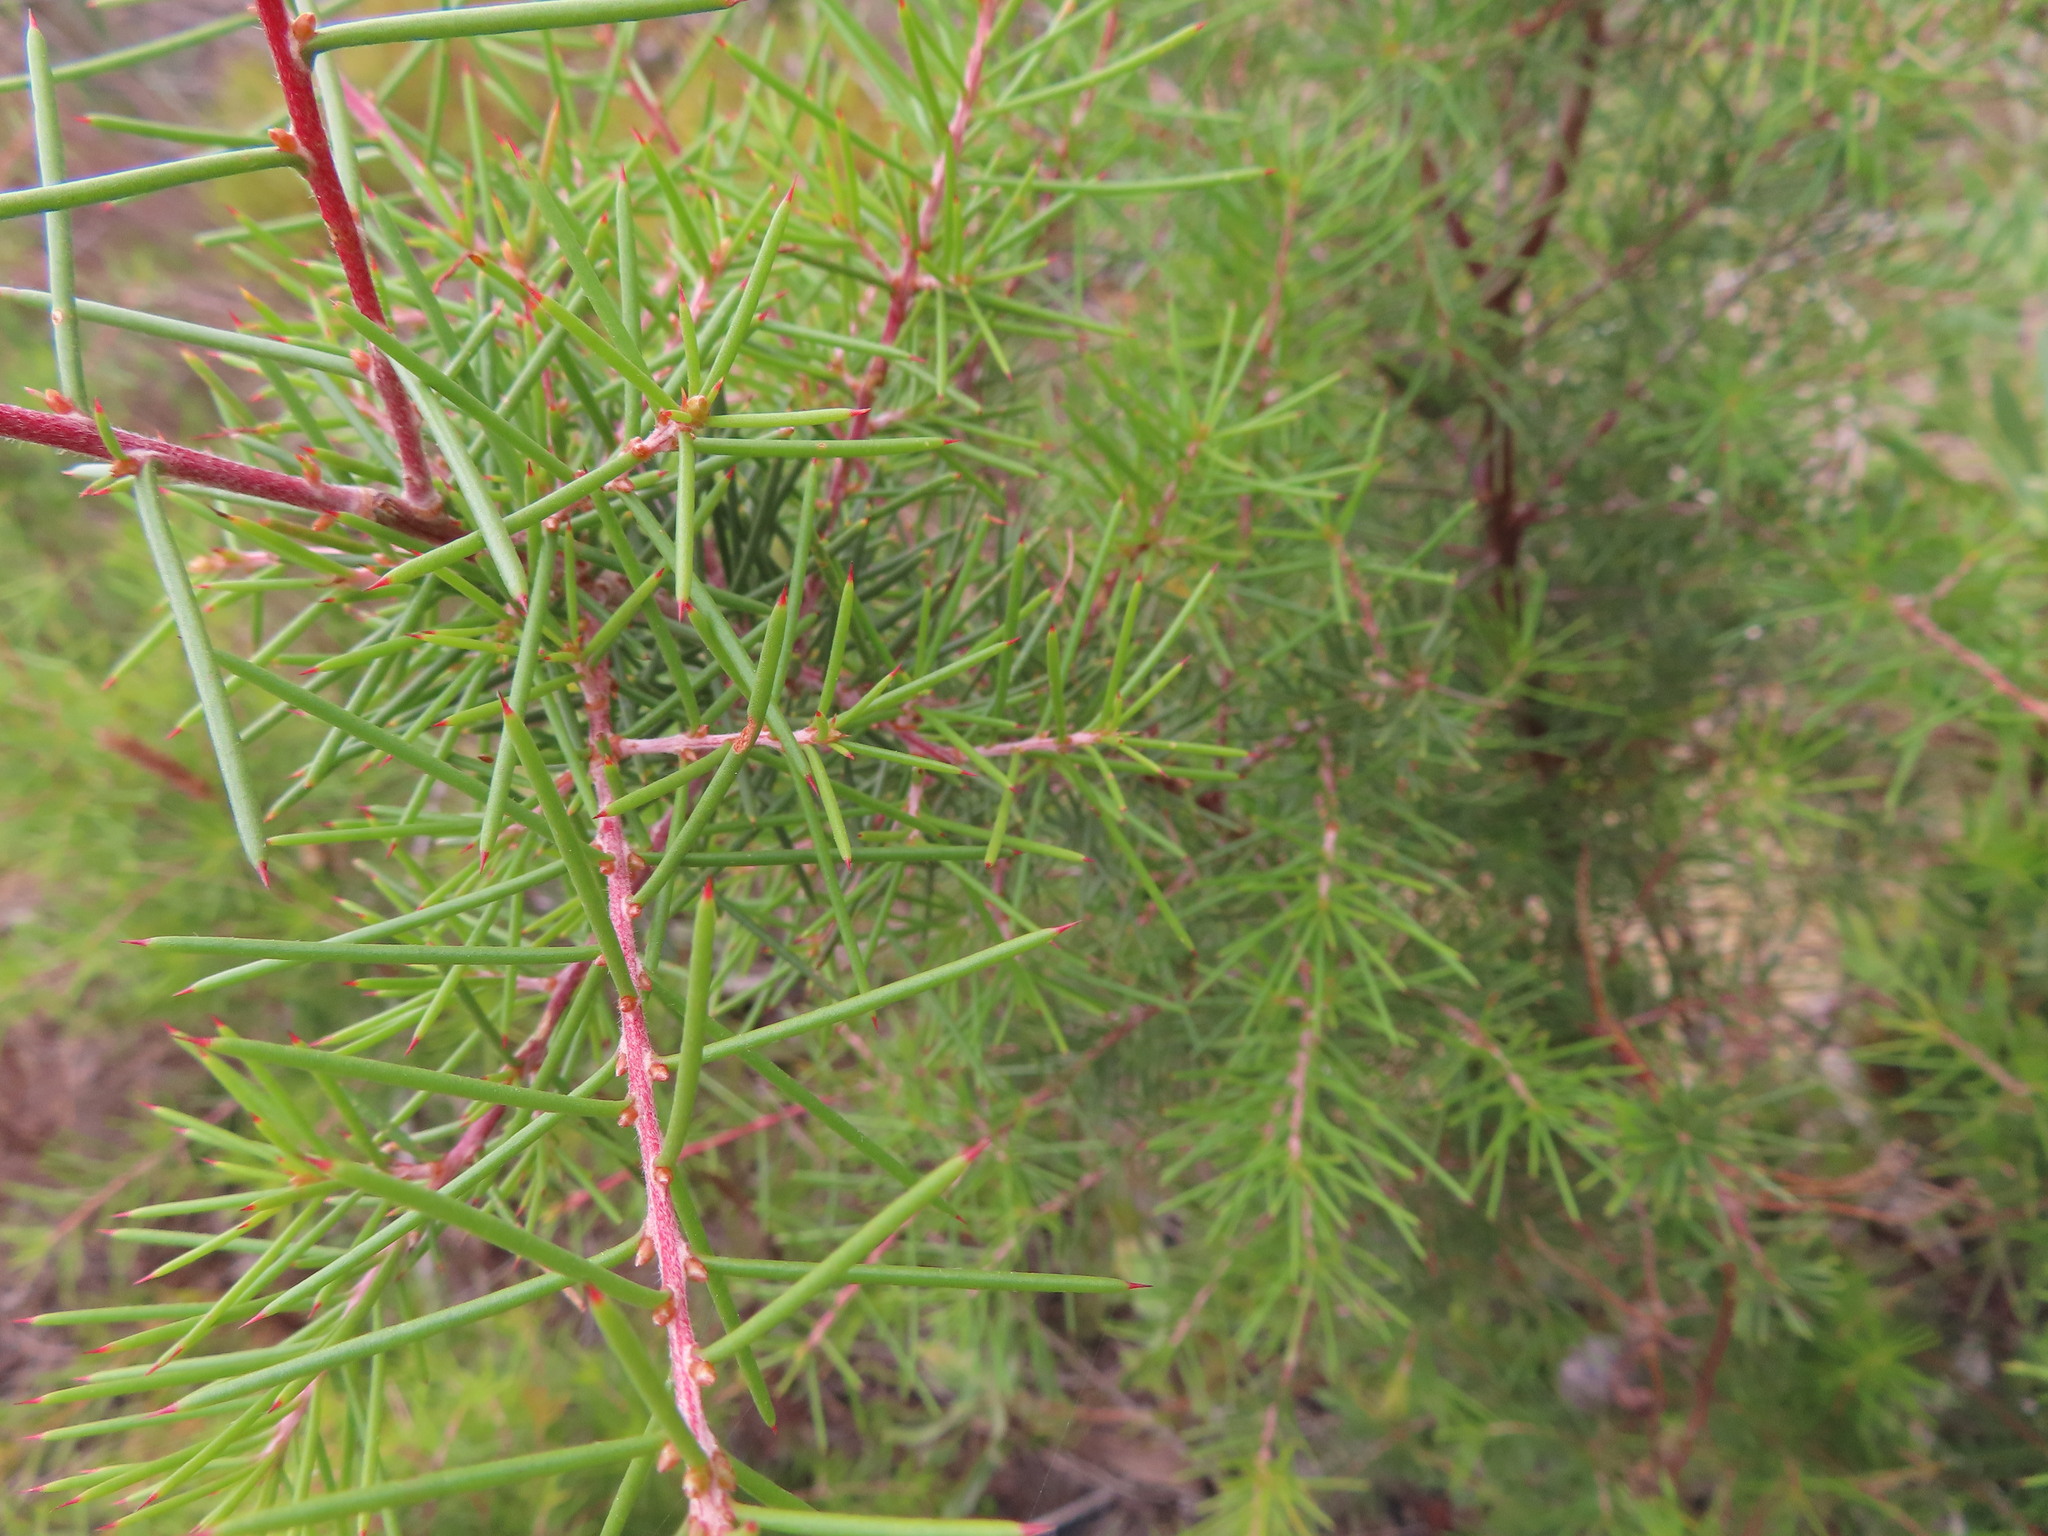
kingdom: Plantae
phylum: Tracheophyta
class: Magnoliopsida
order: Proteales
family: Proteaceae
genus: Hakea
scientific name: Hakea sericea
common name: Needle bush
